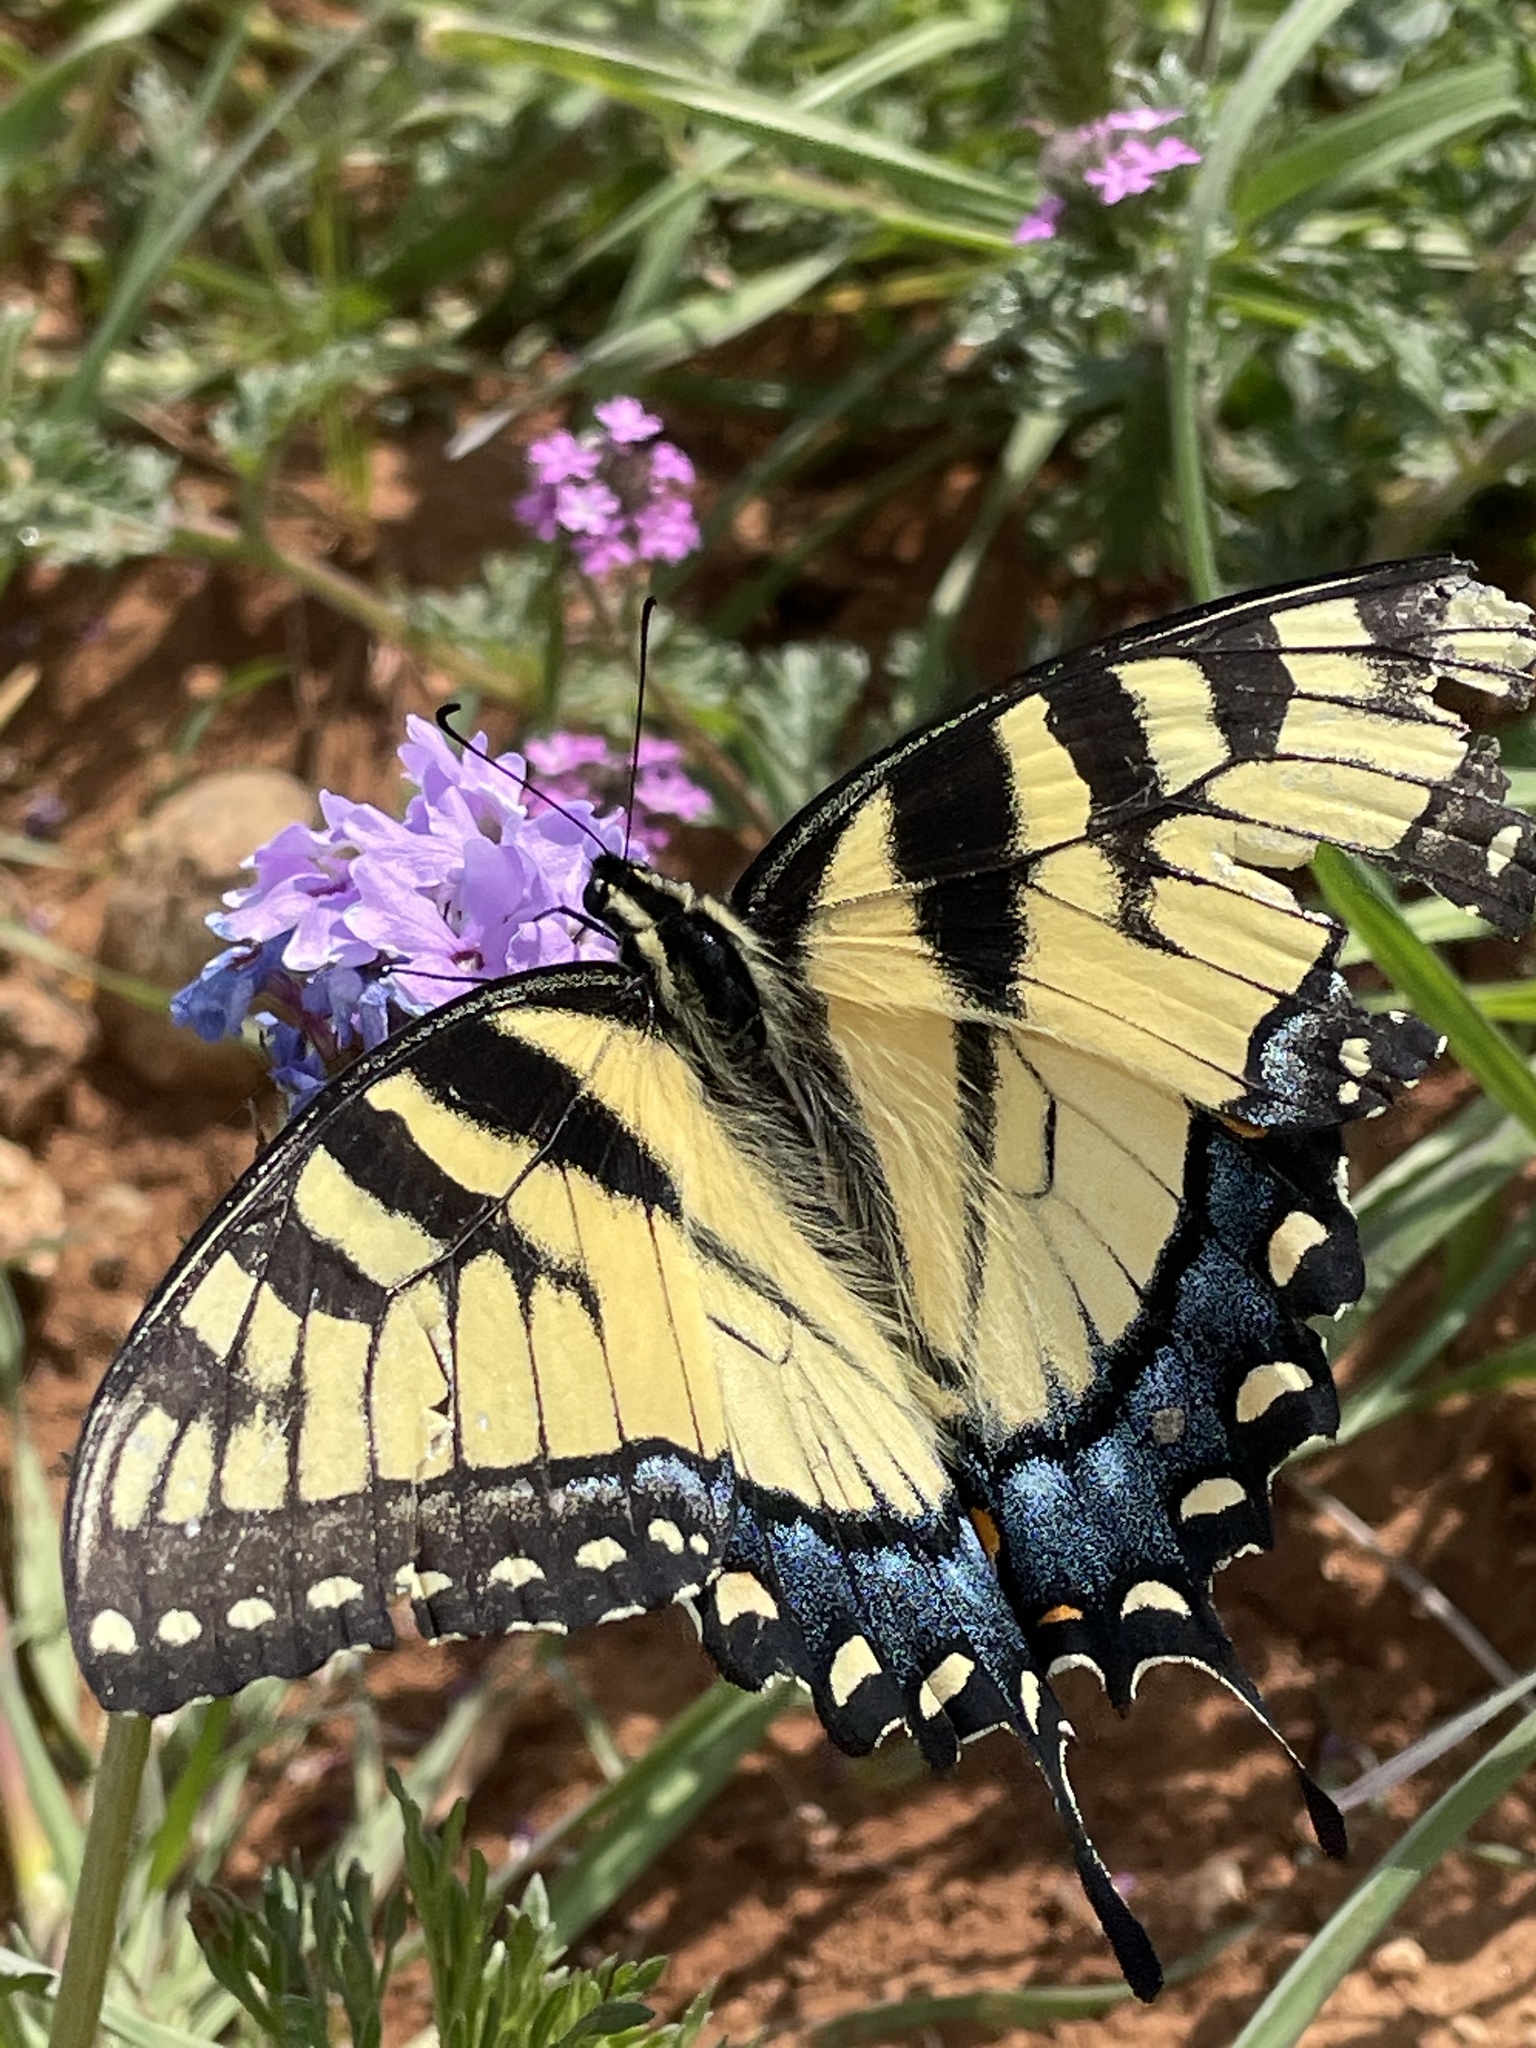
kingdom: Animalia
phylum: Arthropoda
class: Insecta
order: Lepidoptera
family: Papilionidae
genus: Papilio
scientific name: Papilio glaucus
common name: Tiger swallowtail
